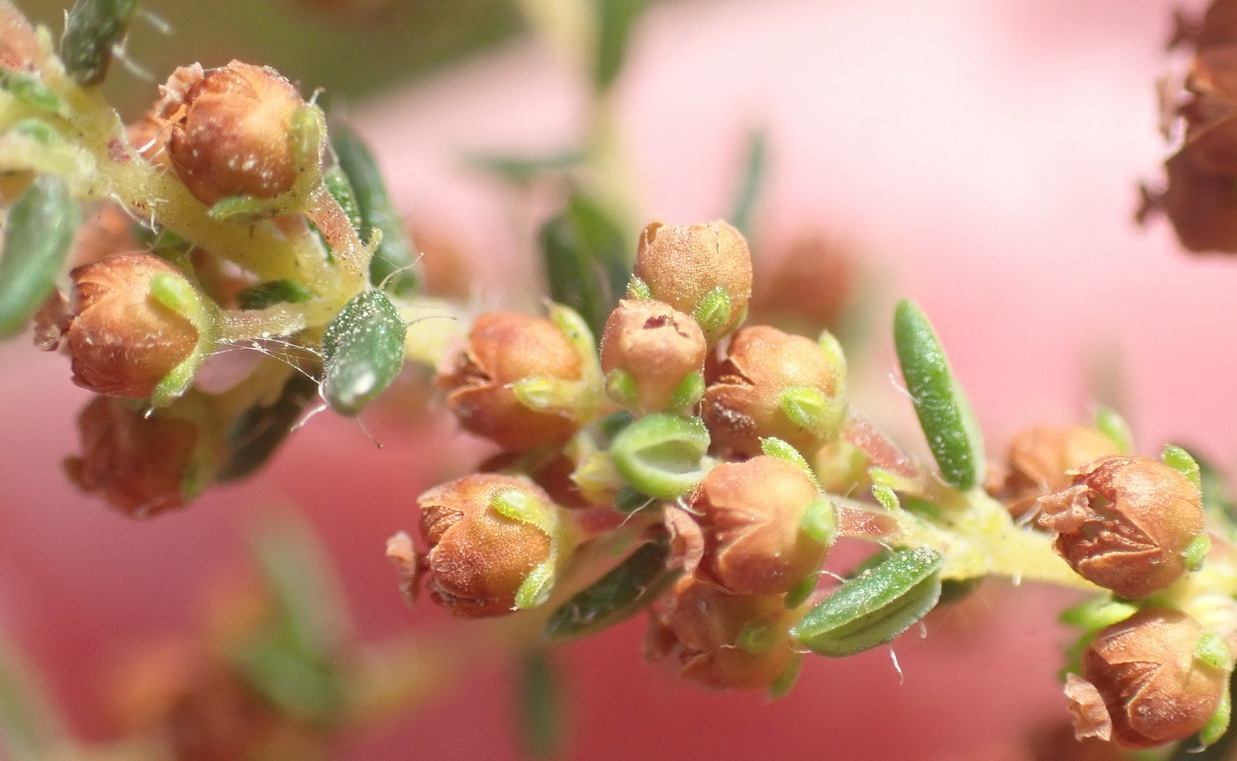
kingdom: Plantae
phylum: Tracheophyta
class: Magnoliopsida
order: Ericales
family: Ericaceae
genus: Erica
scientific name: Erica leucopelta
